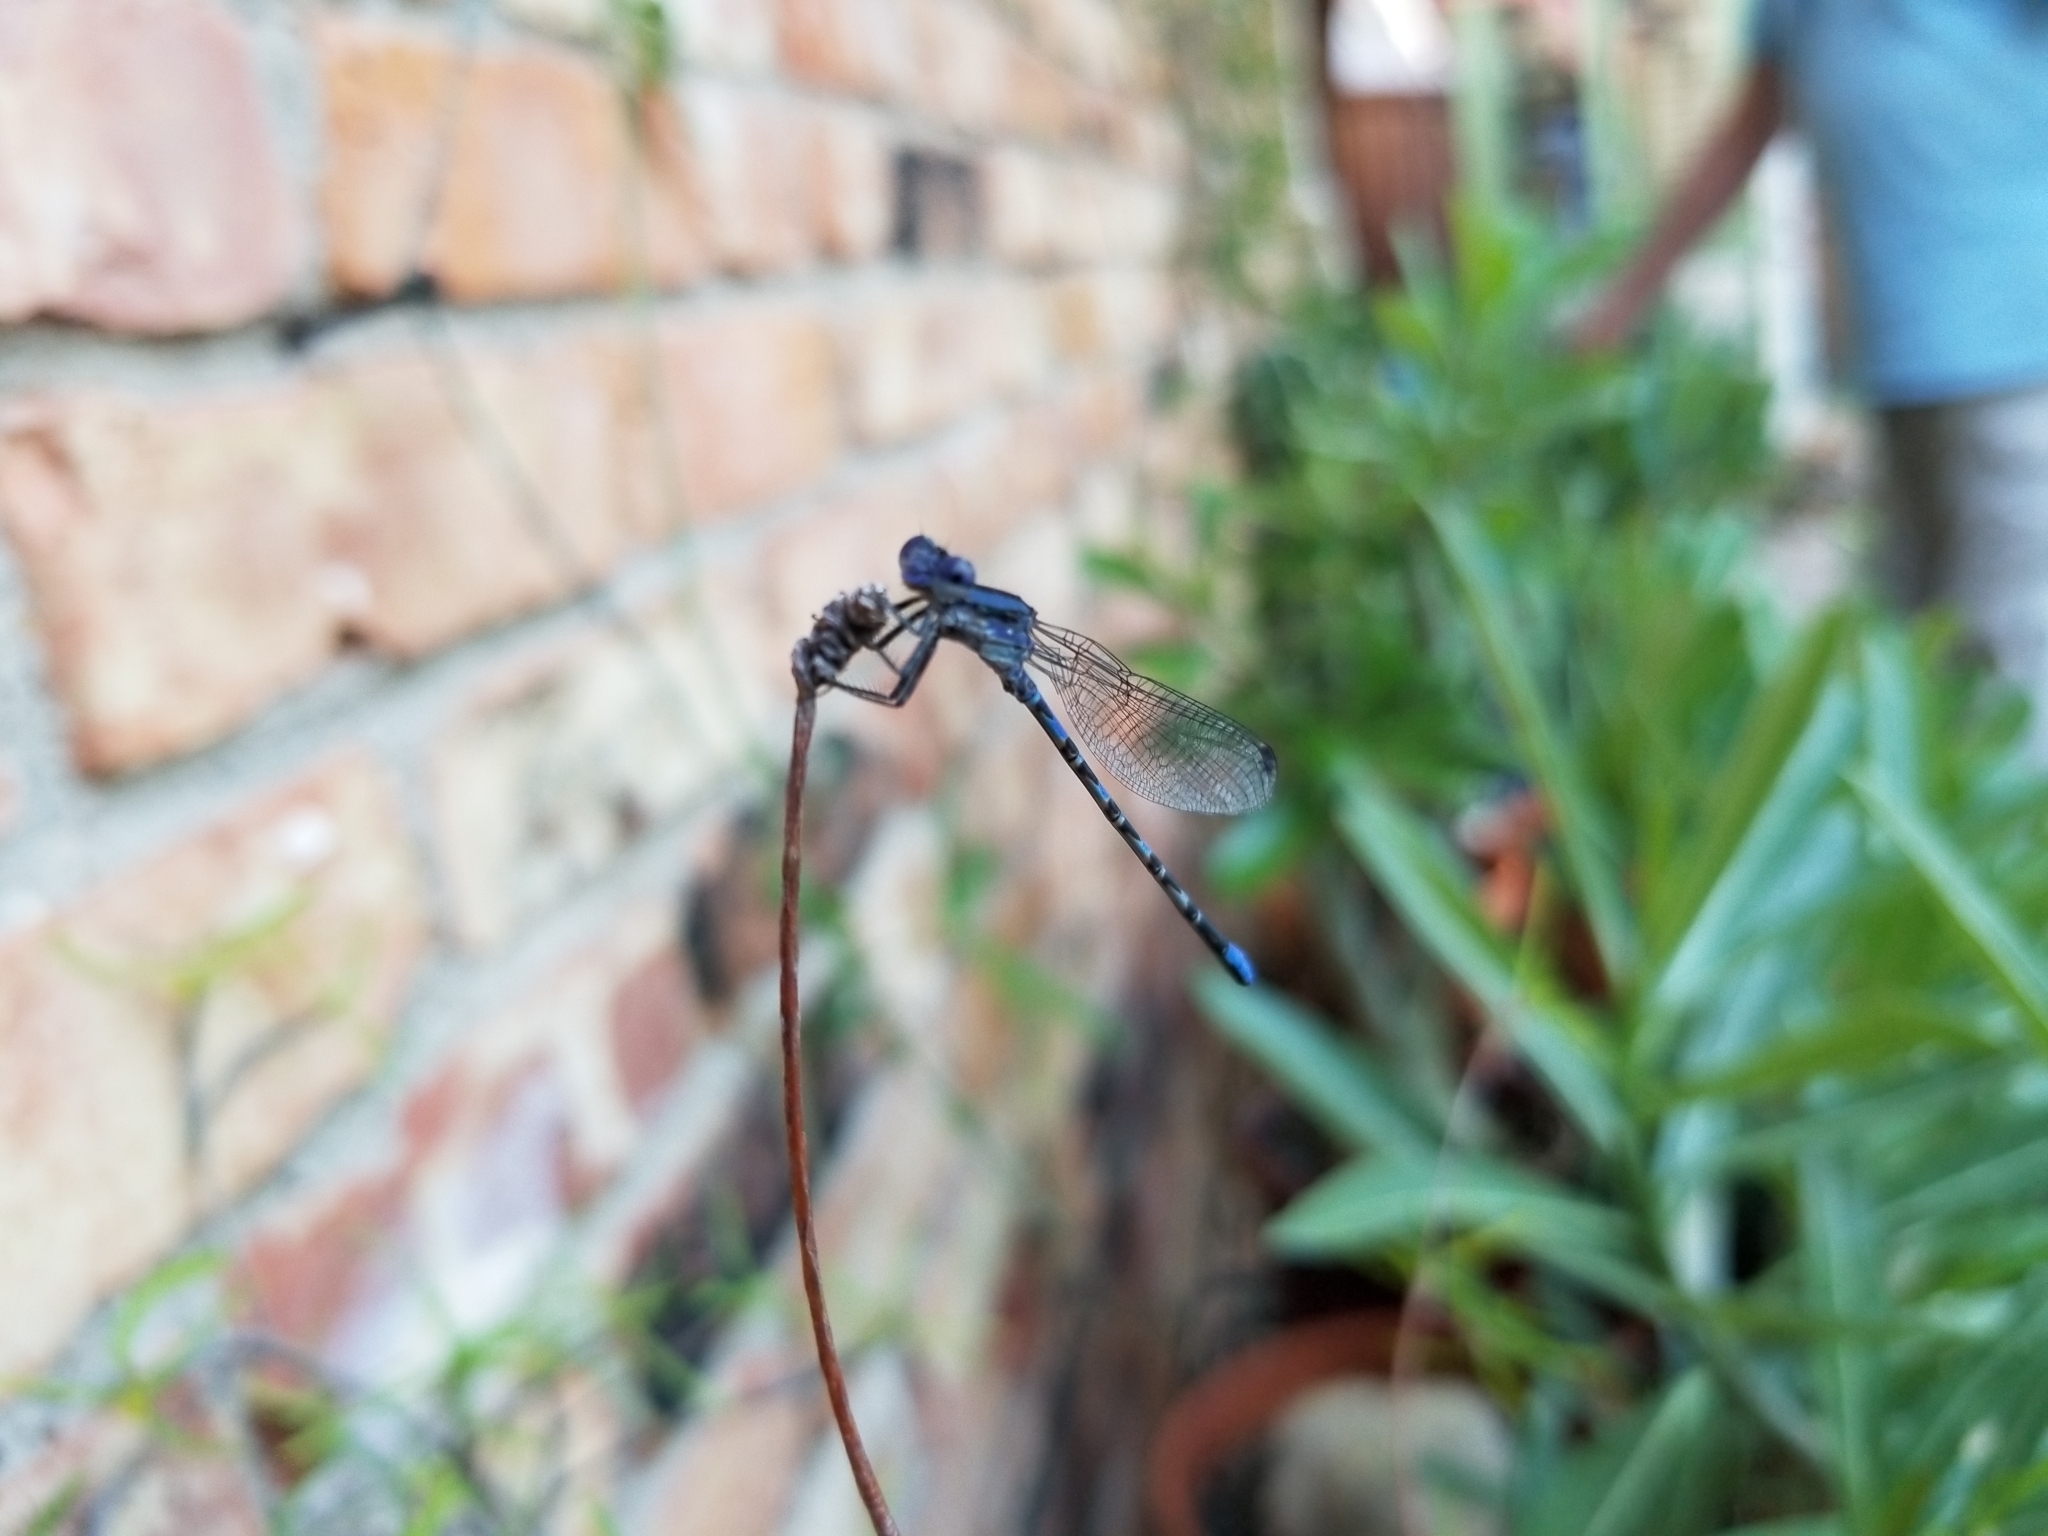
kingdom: Animalia
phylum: Arthropoda
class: Insecta
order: Odonata
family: Coenagrionidae
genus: Argia
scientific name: Argia immunda
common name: Kiowa dancer
